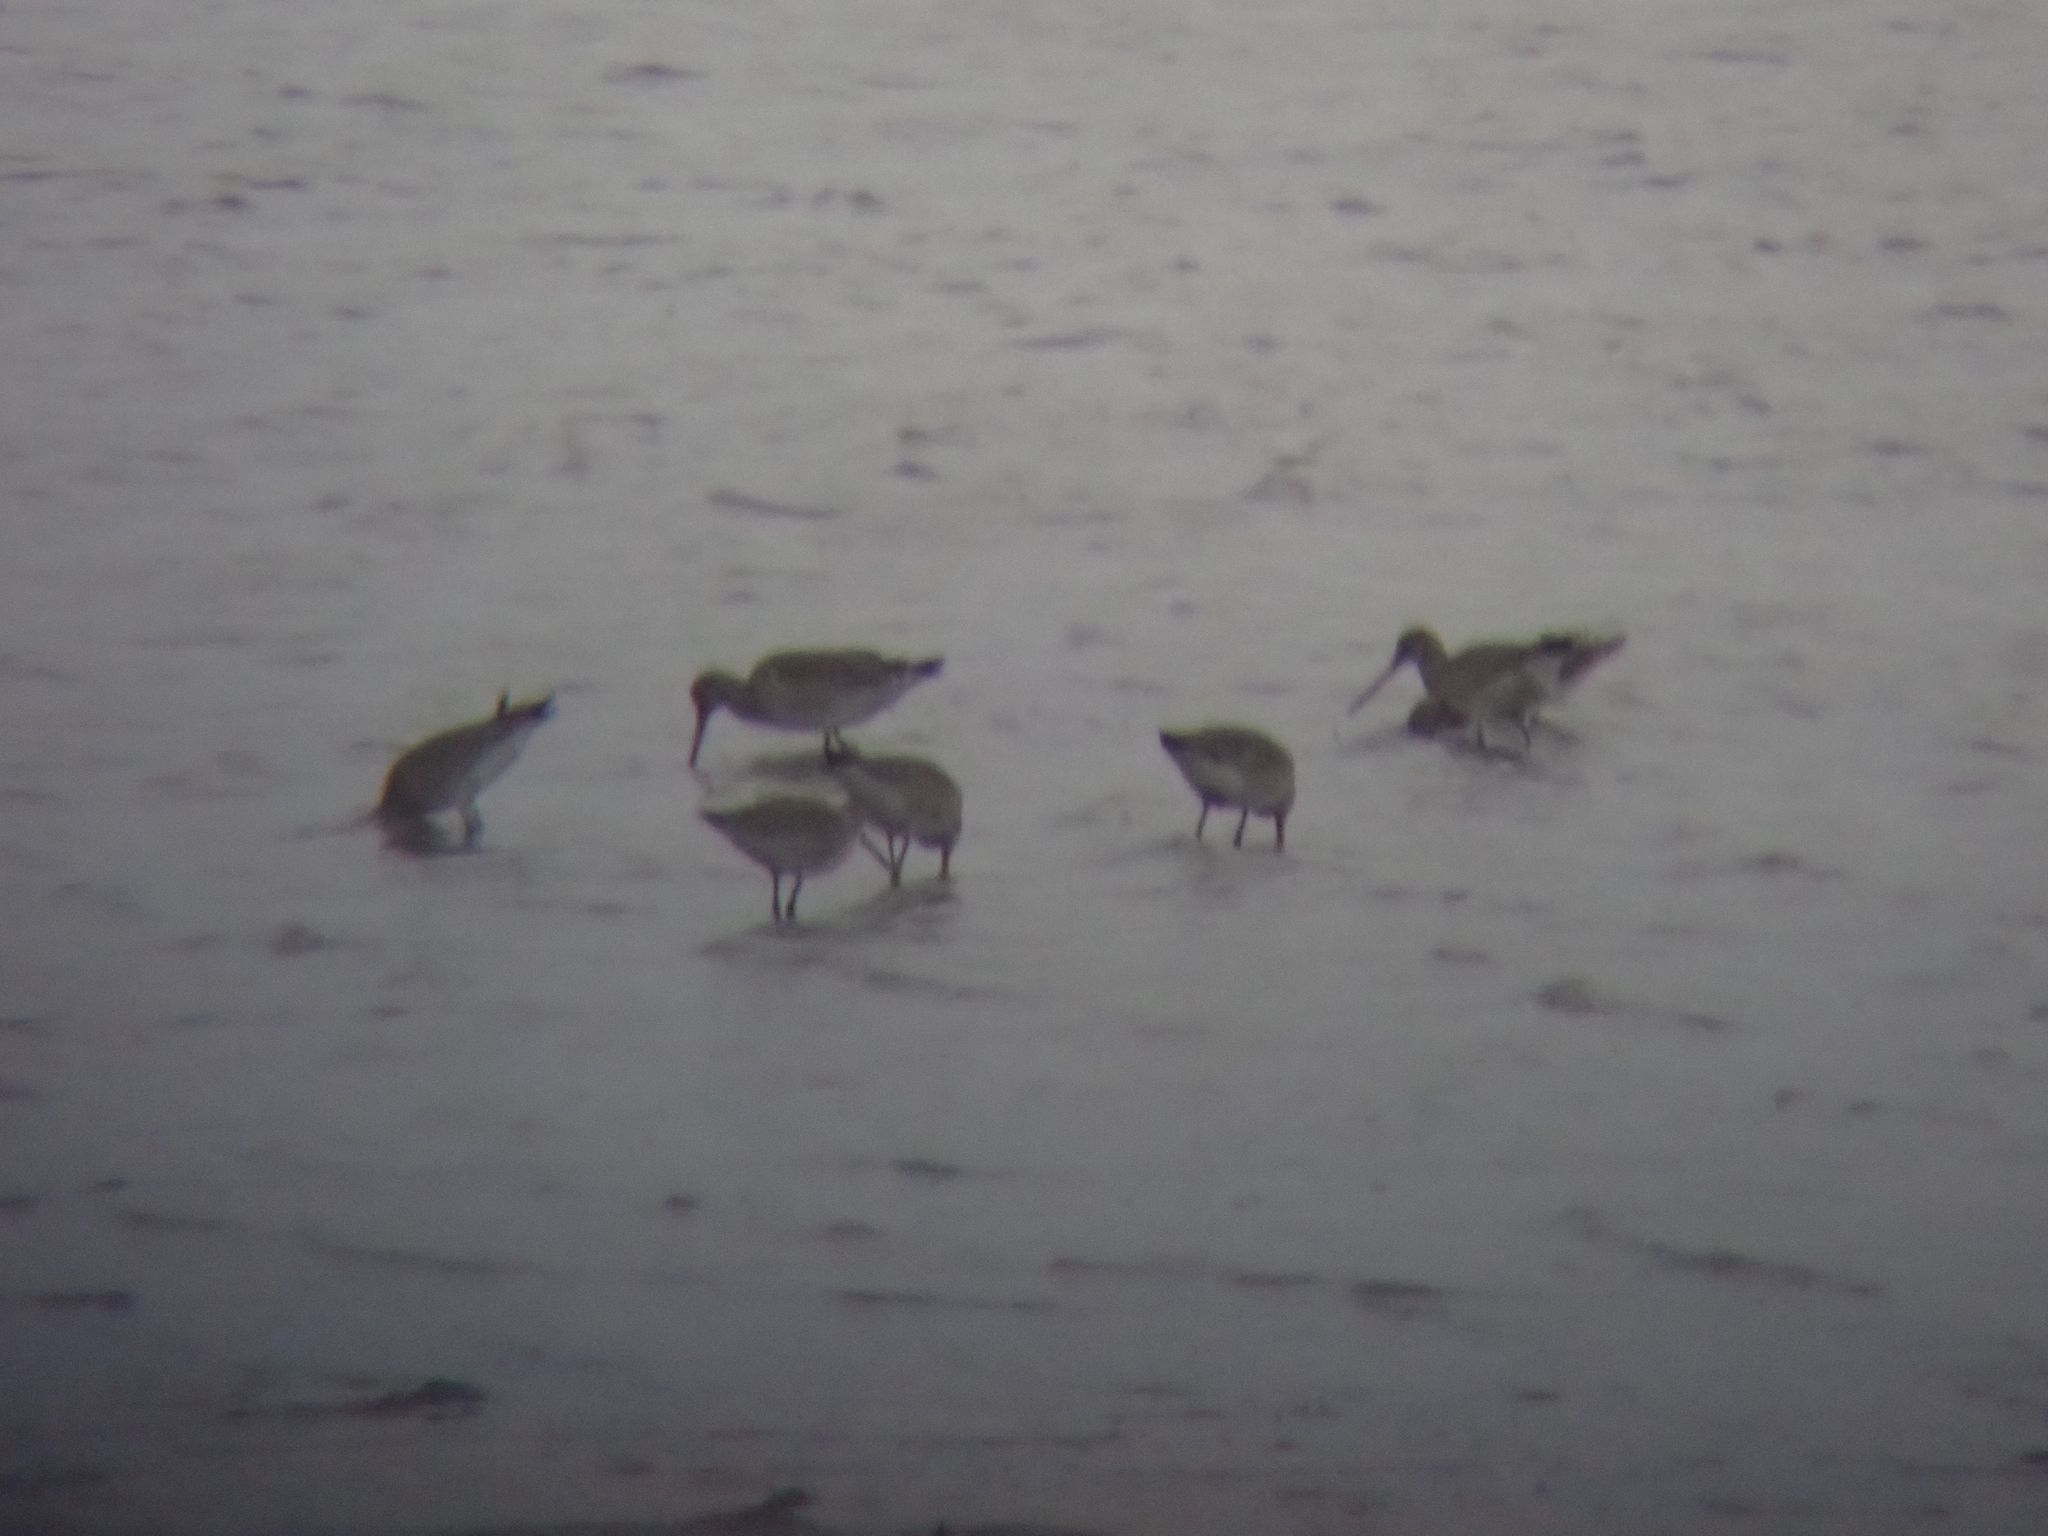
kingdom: Animalia
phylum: Chordata
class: Aves
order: Charadriiformes
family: Scolopacidae
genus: Limosa
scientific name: Limosa limosa
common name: Black-tailed godwit
